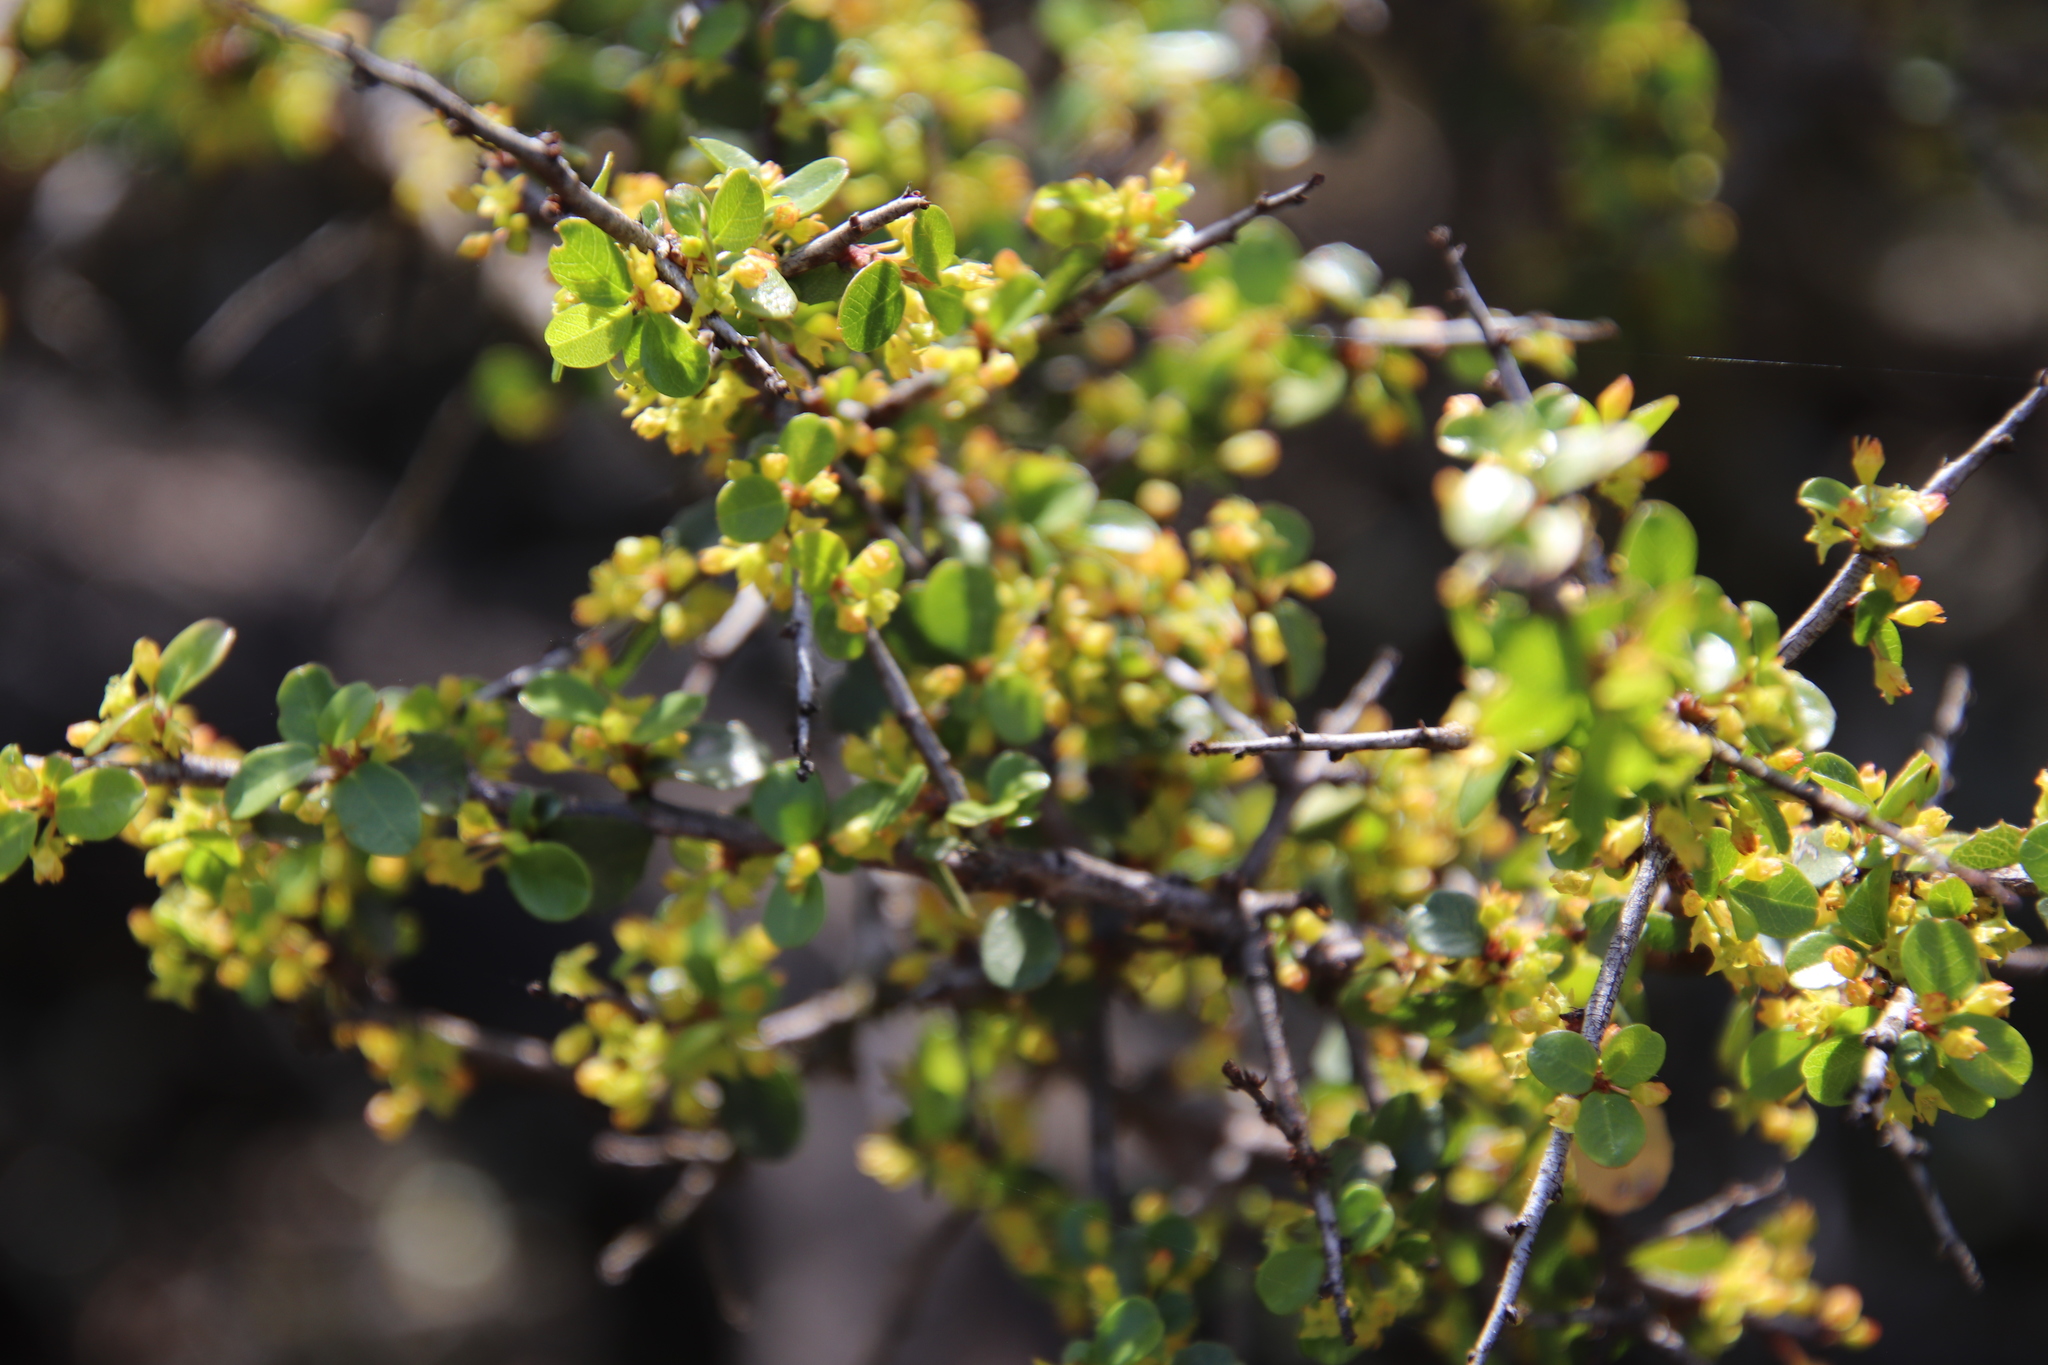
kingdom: Plantae
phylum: Tracheophyta
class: Magnoliopsida
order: Rosales
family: Rhamnaceae
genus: Endotropis
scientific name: Endotropis crocea
